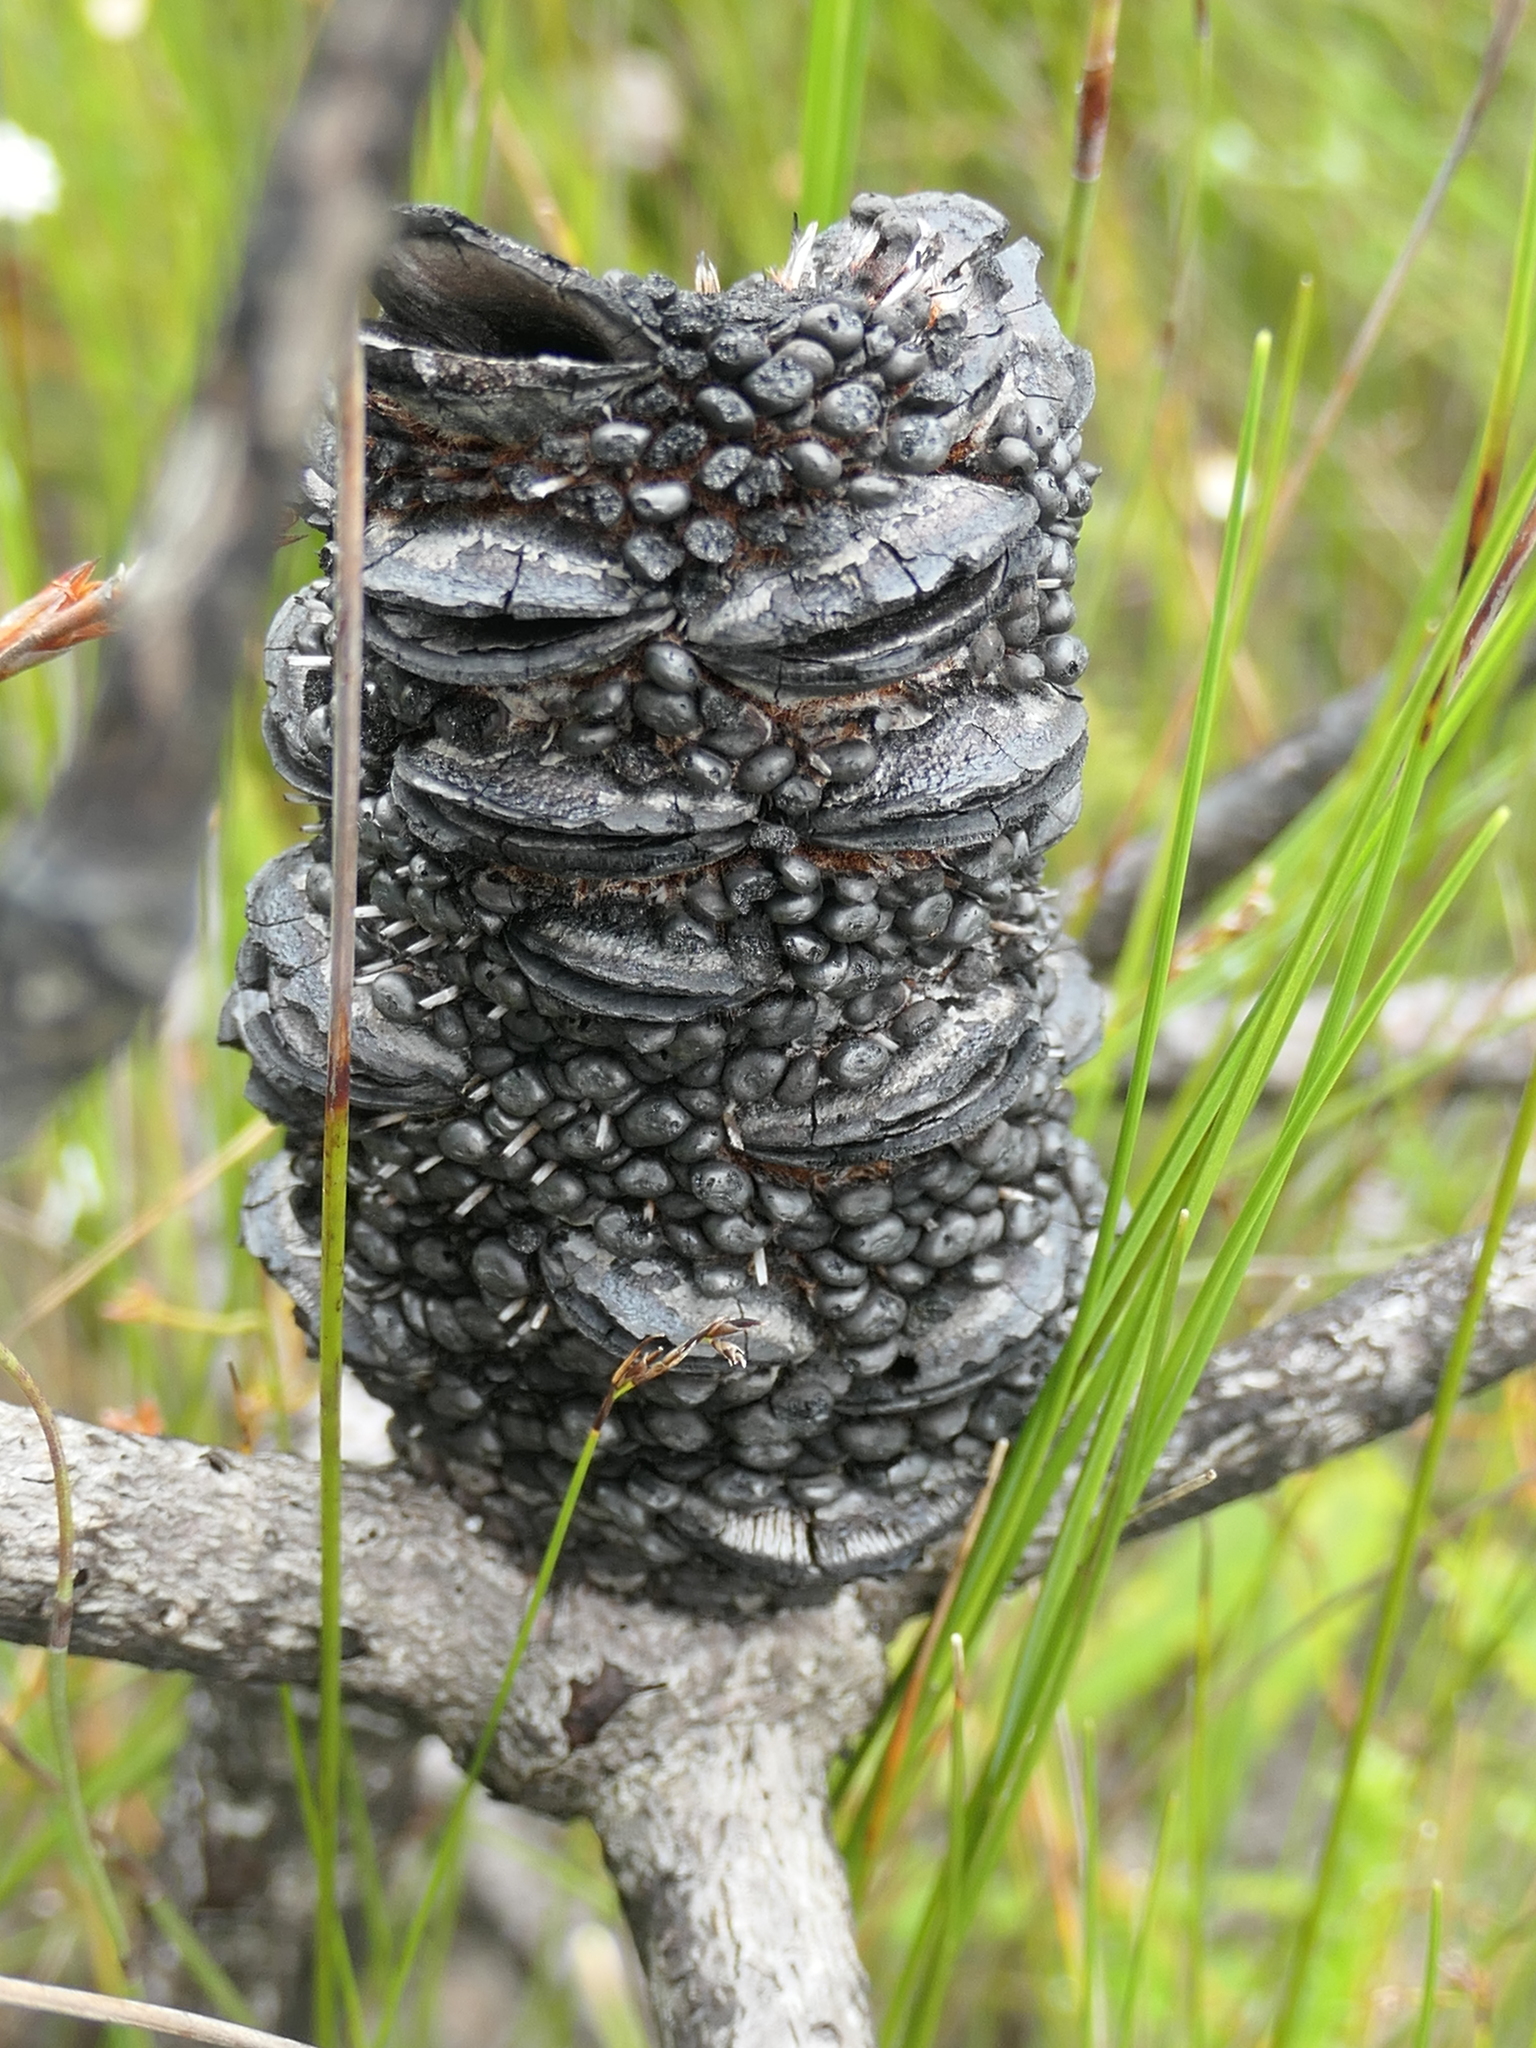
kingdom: Plantae
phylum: Tracheophyta
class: Magnoliopsida
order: Proteales
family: Proteaceae
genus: Banksia
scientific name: Banksia paludosa
